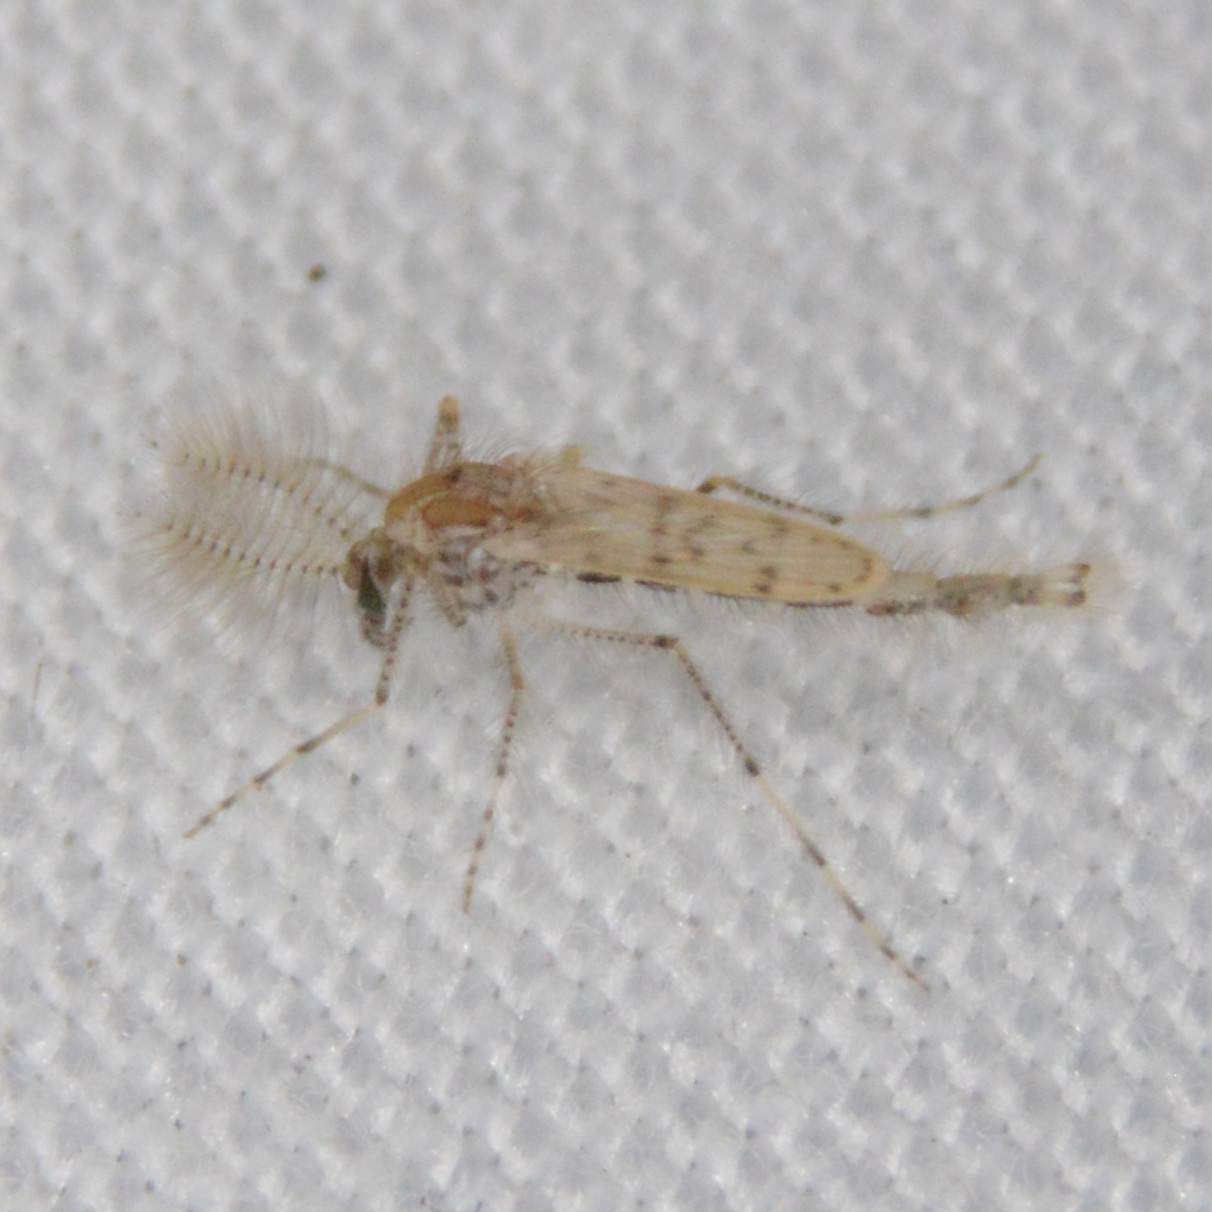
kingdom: Animalia
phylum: Arthropoda
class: Insecta
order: Diptera
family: Chaoboridae
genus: Chaoborus
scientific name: Chaoborus punctipennis
